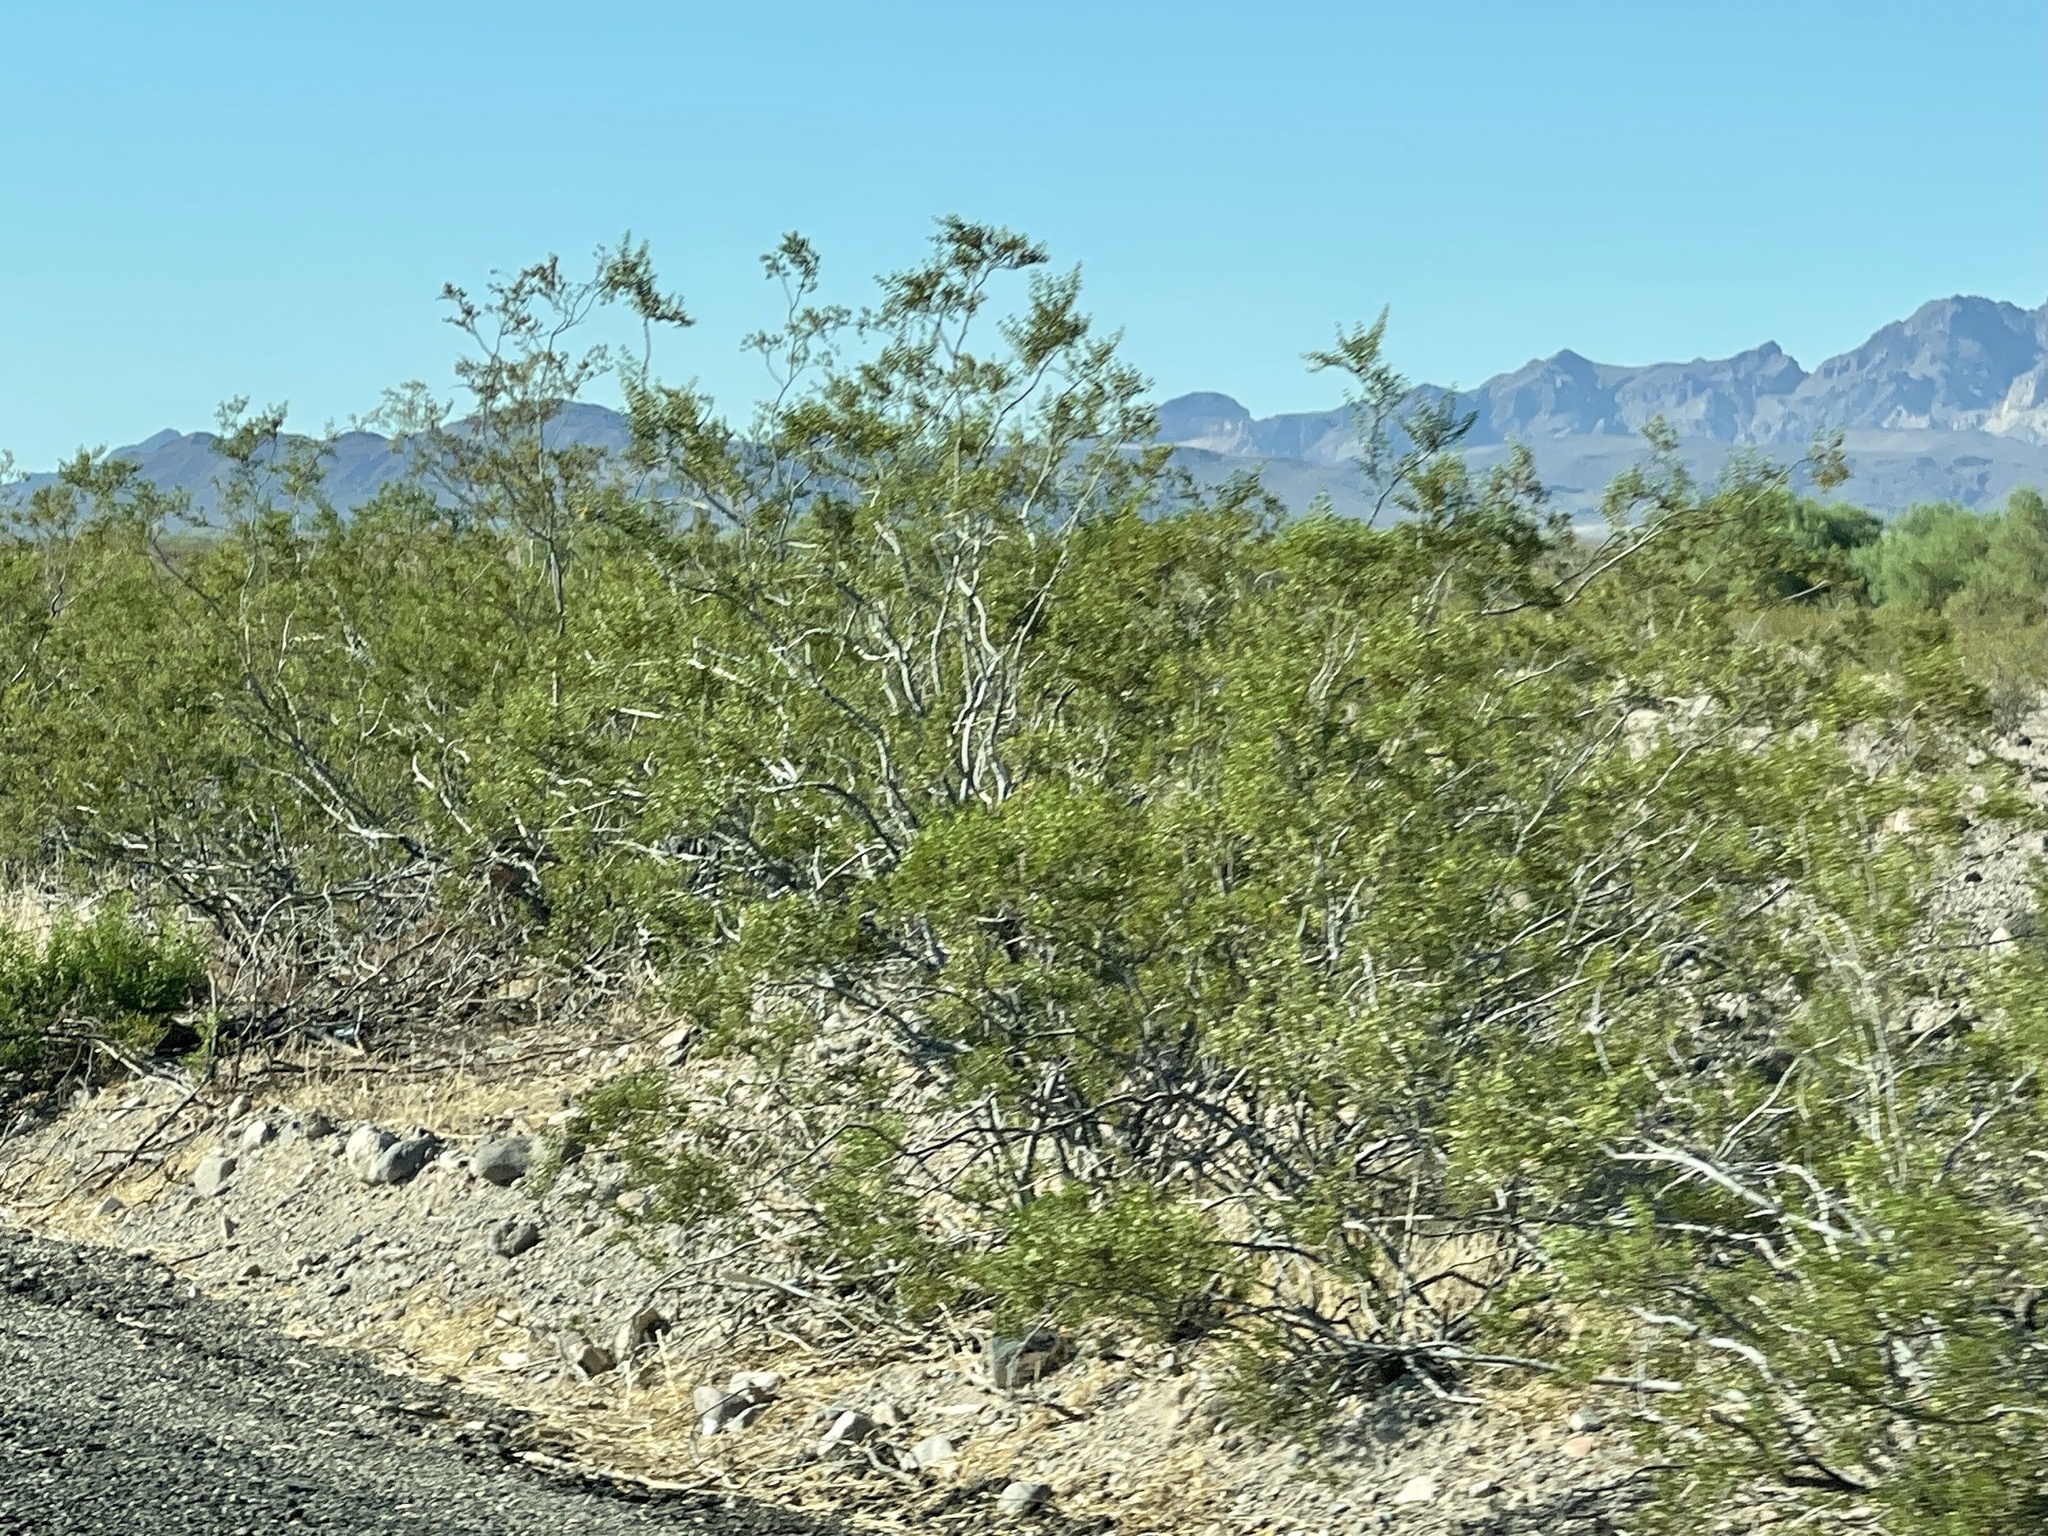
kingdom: Plantae
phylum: Tracheophyta
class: Magnoliopsida
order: Zygophyllales
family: Zygophyllaceae
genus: Larrea
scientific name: Larrea tridentata
